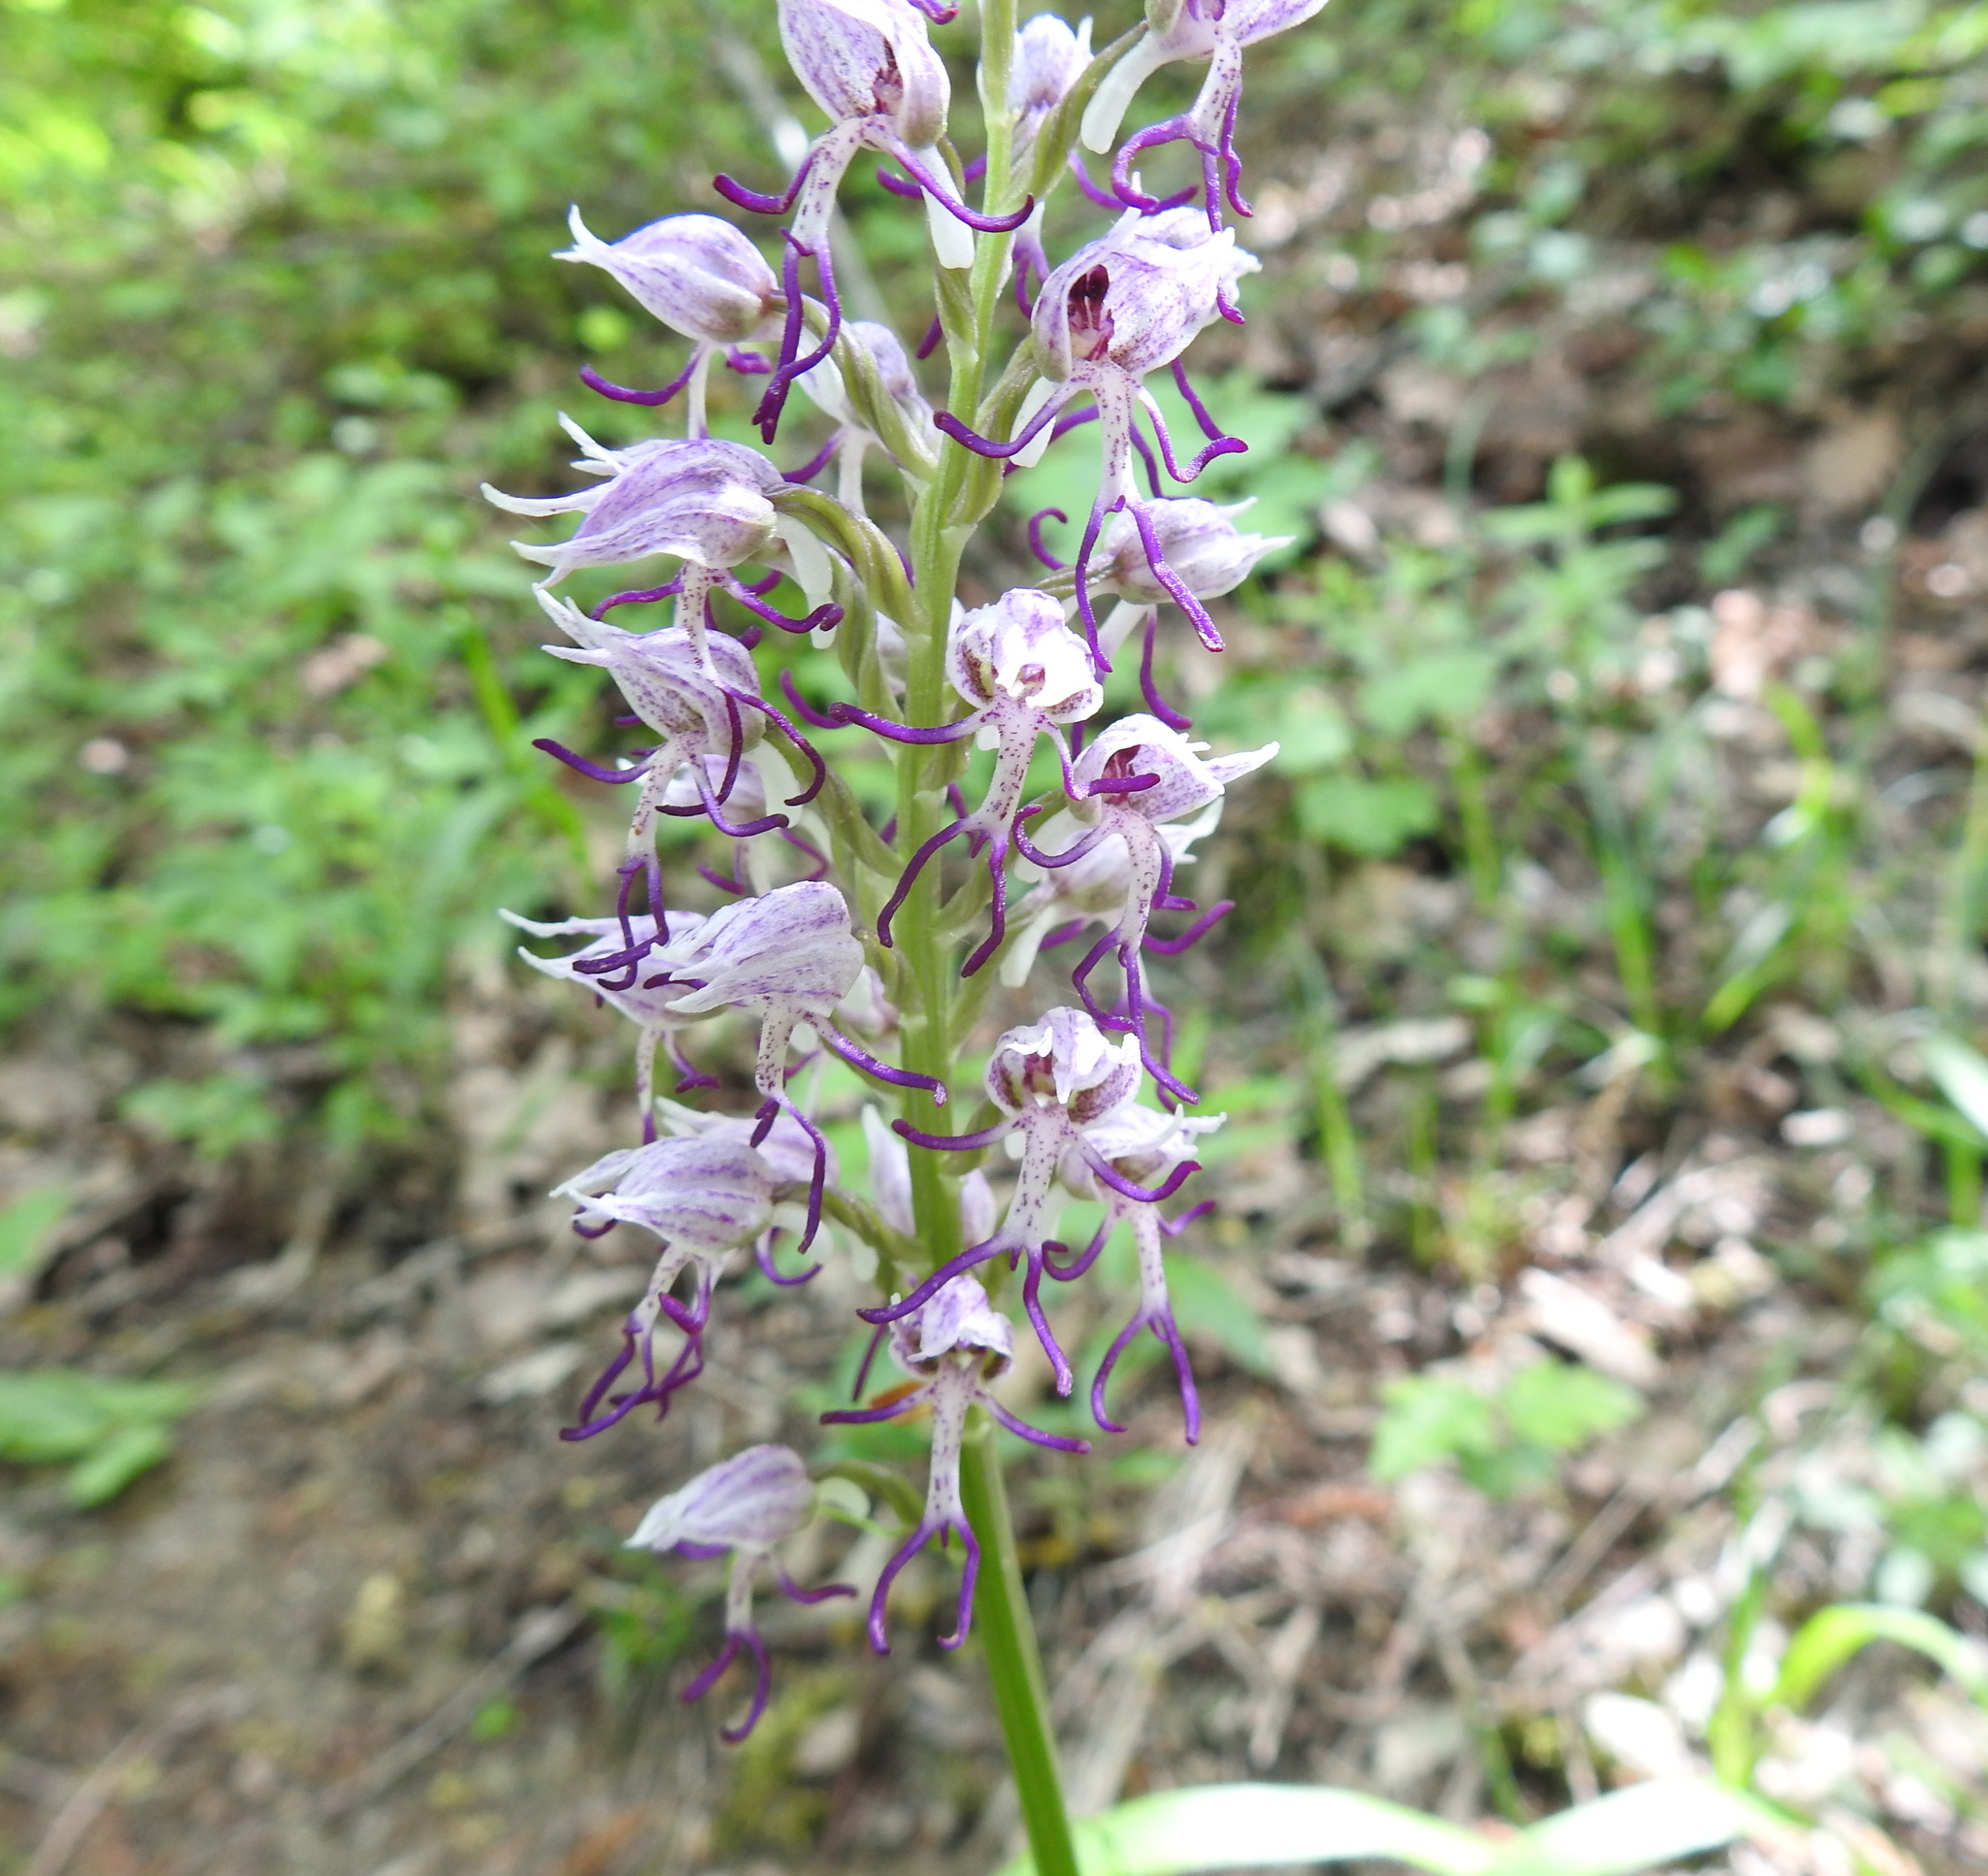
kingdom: Plantae
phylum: Tracheophyta
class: Liliopsida
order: Asparagales
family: Orchidaceae
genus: Orchis
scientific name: Orchis simia
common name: Monkey orchid
